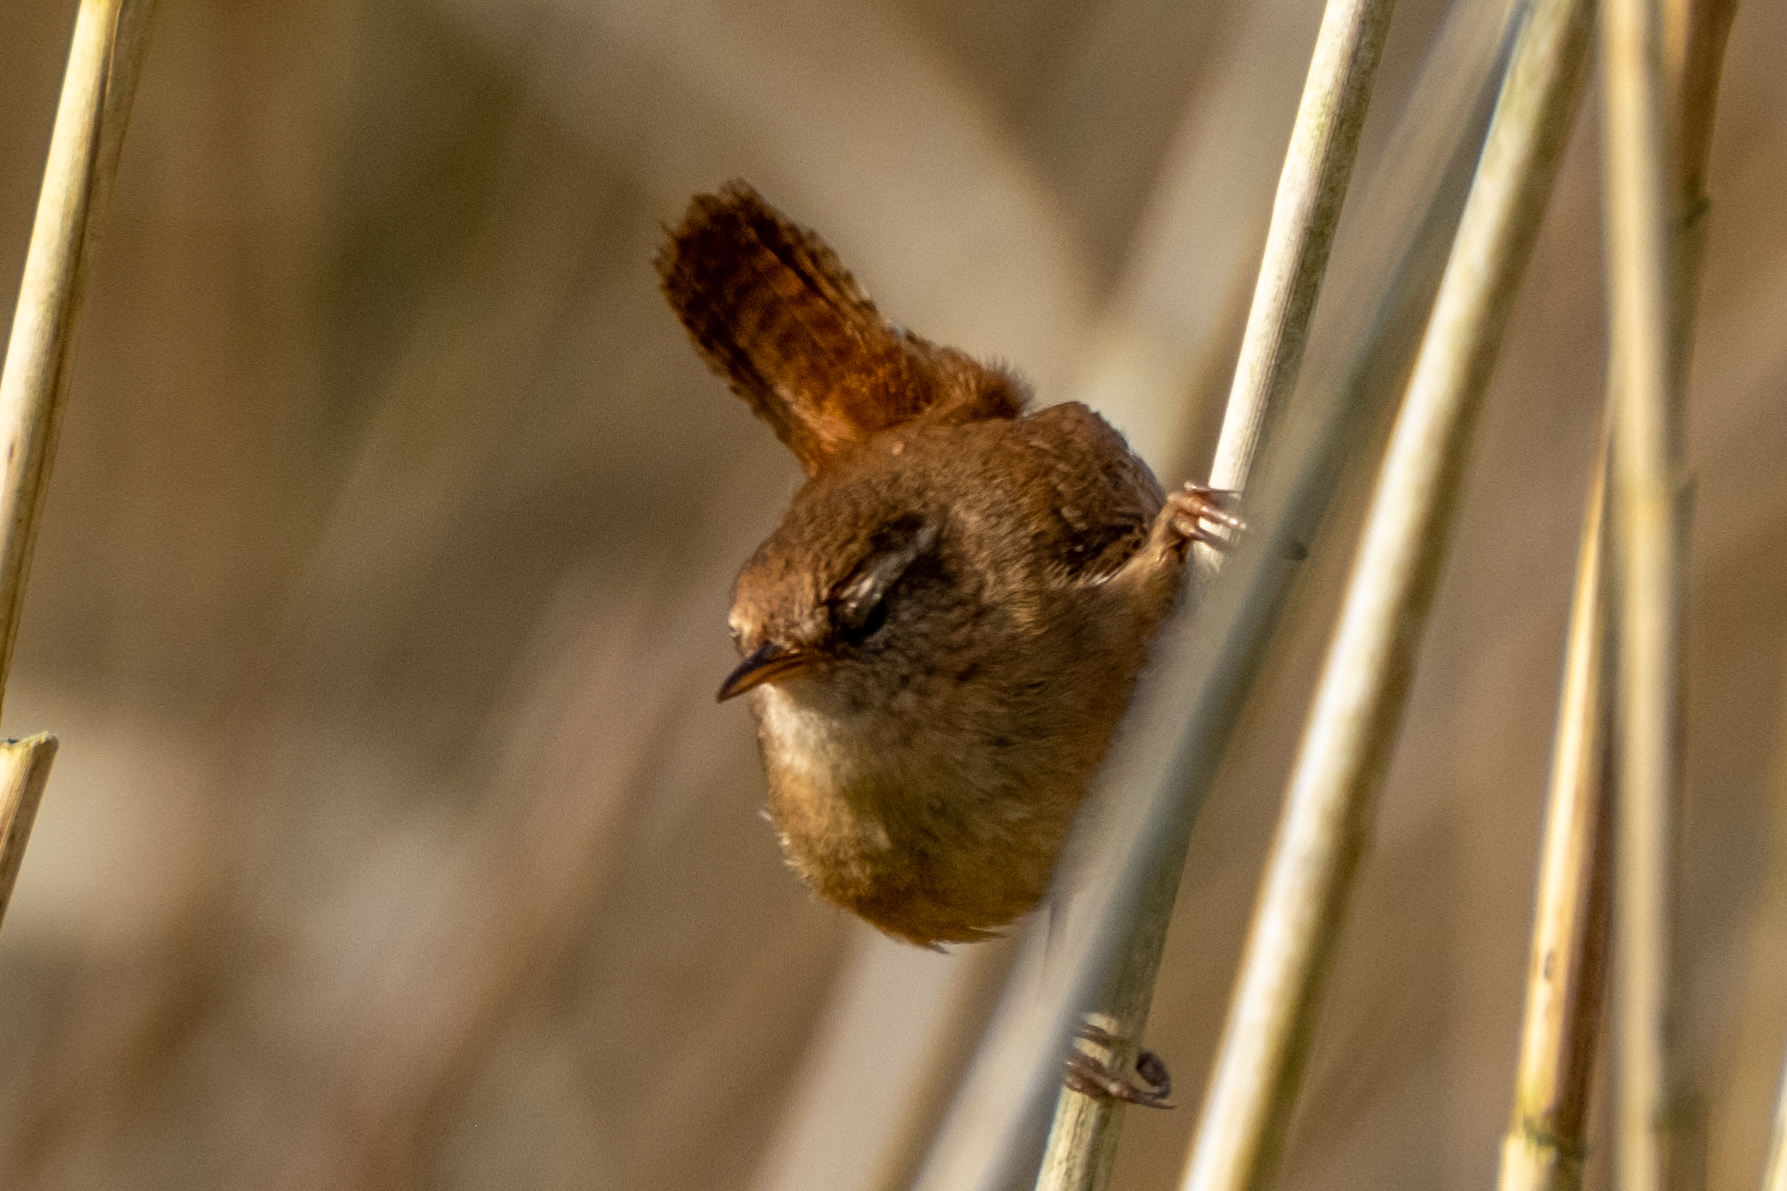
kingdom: Animalia
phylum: Chordata
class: Aves
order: Passeriformes
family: Troglodytidae
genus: Troglodytes
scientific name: Troglodytes troglodytes
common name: Eurasian wren
